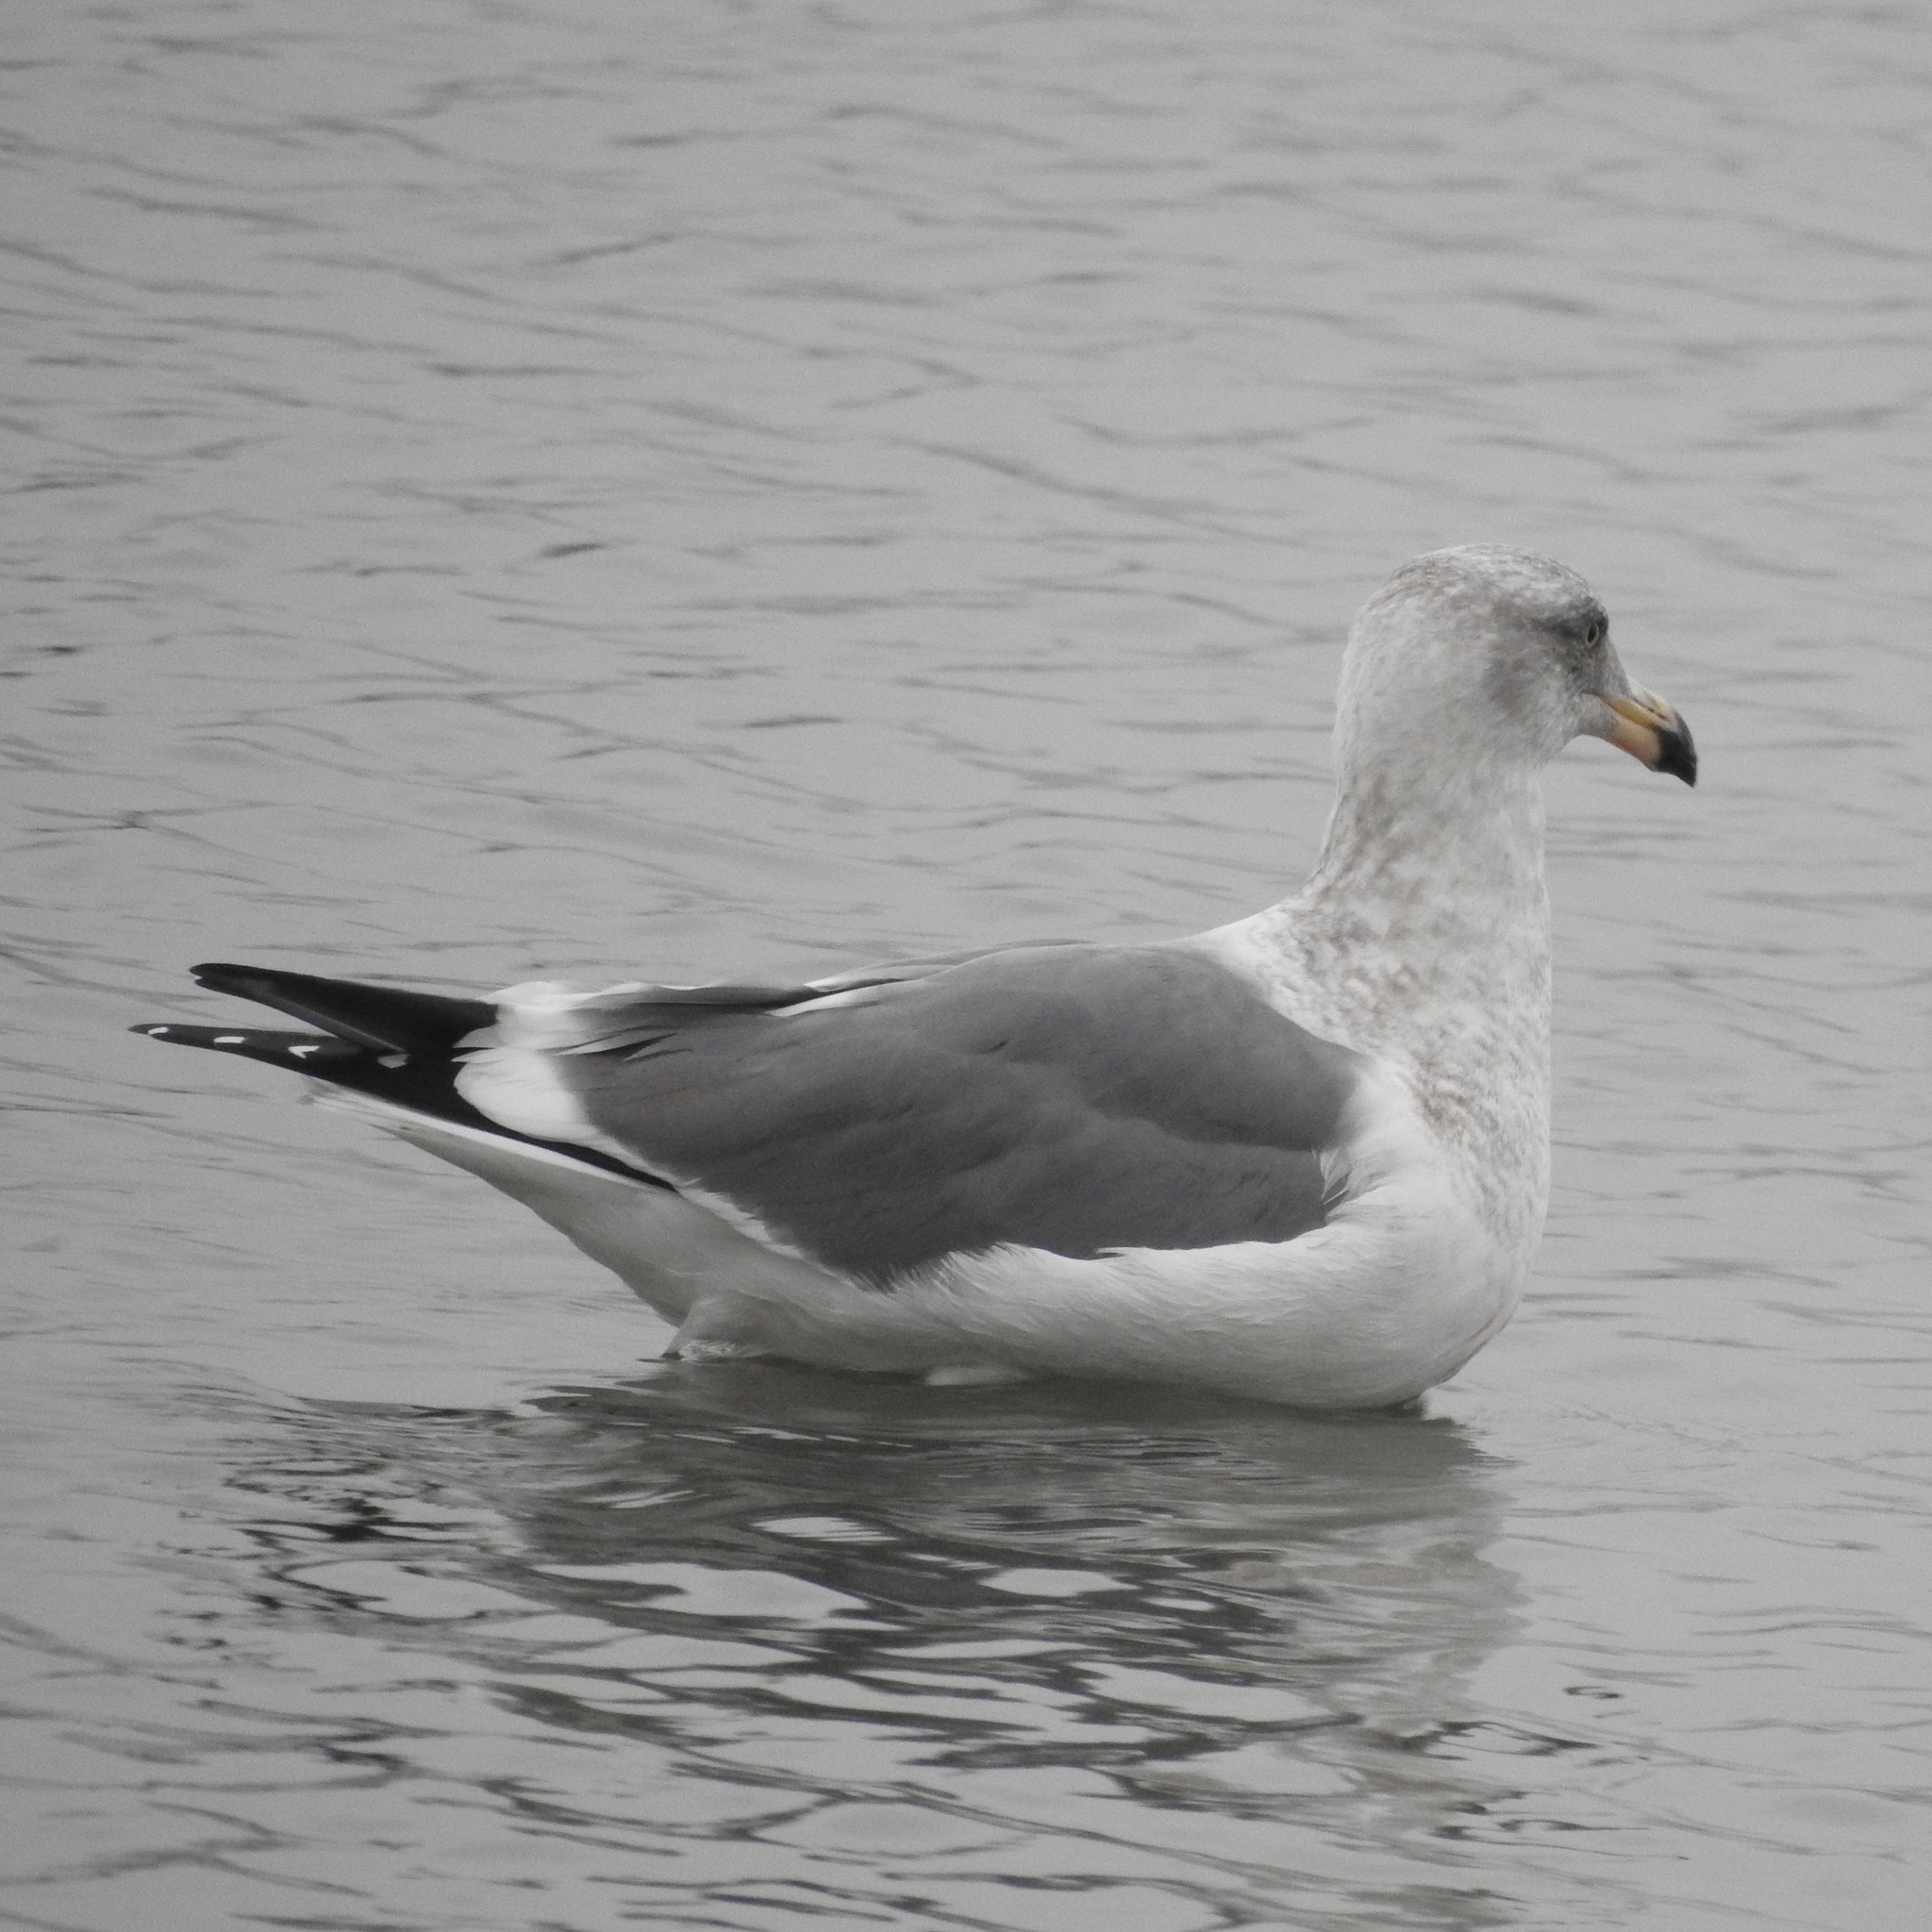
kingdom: Animalia
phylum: Chordata
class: Aves
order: Charadriiformes
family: Laridae
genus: Larus
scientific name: Larus occidentalis
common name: Western gull
